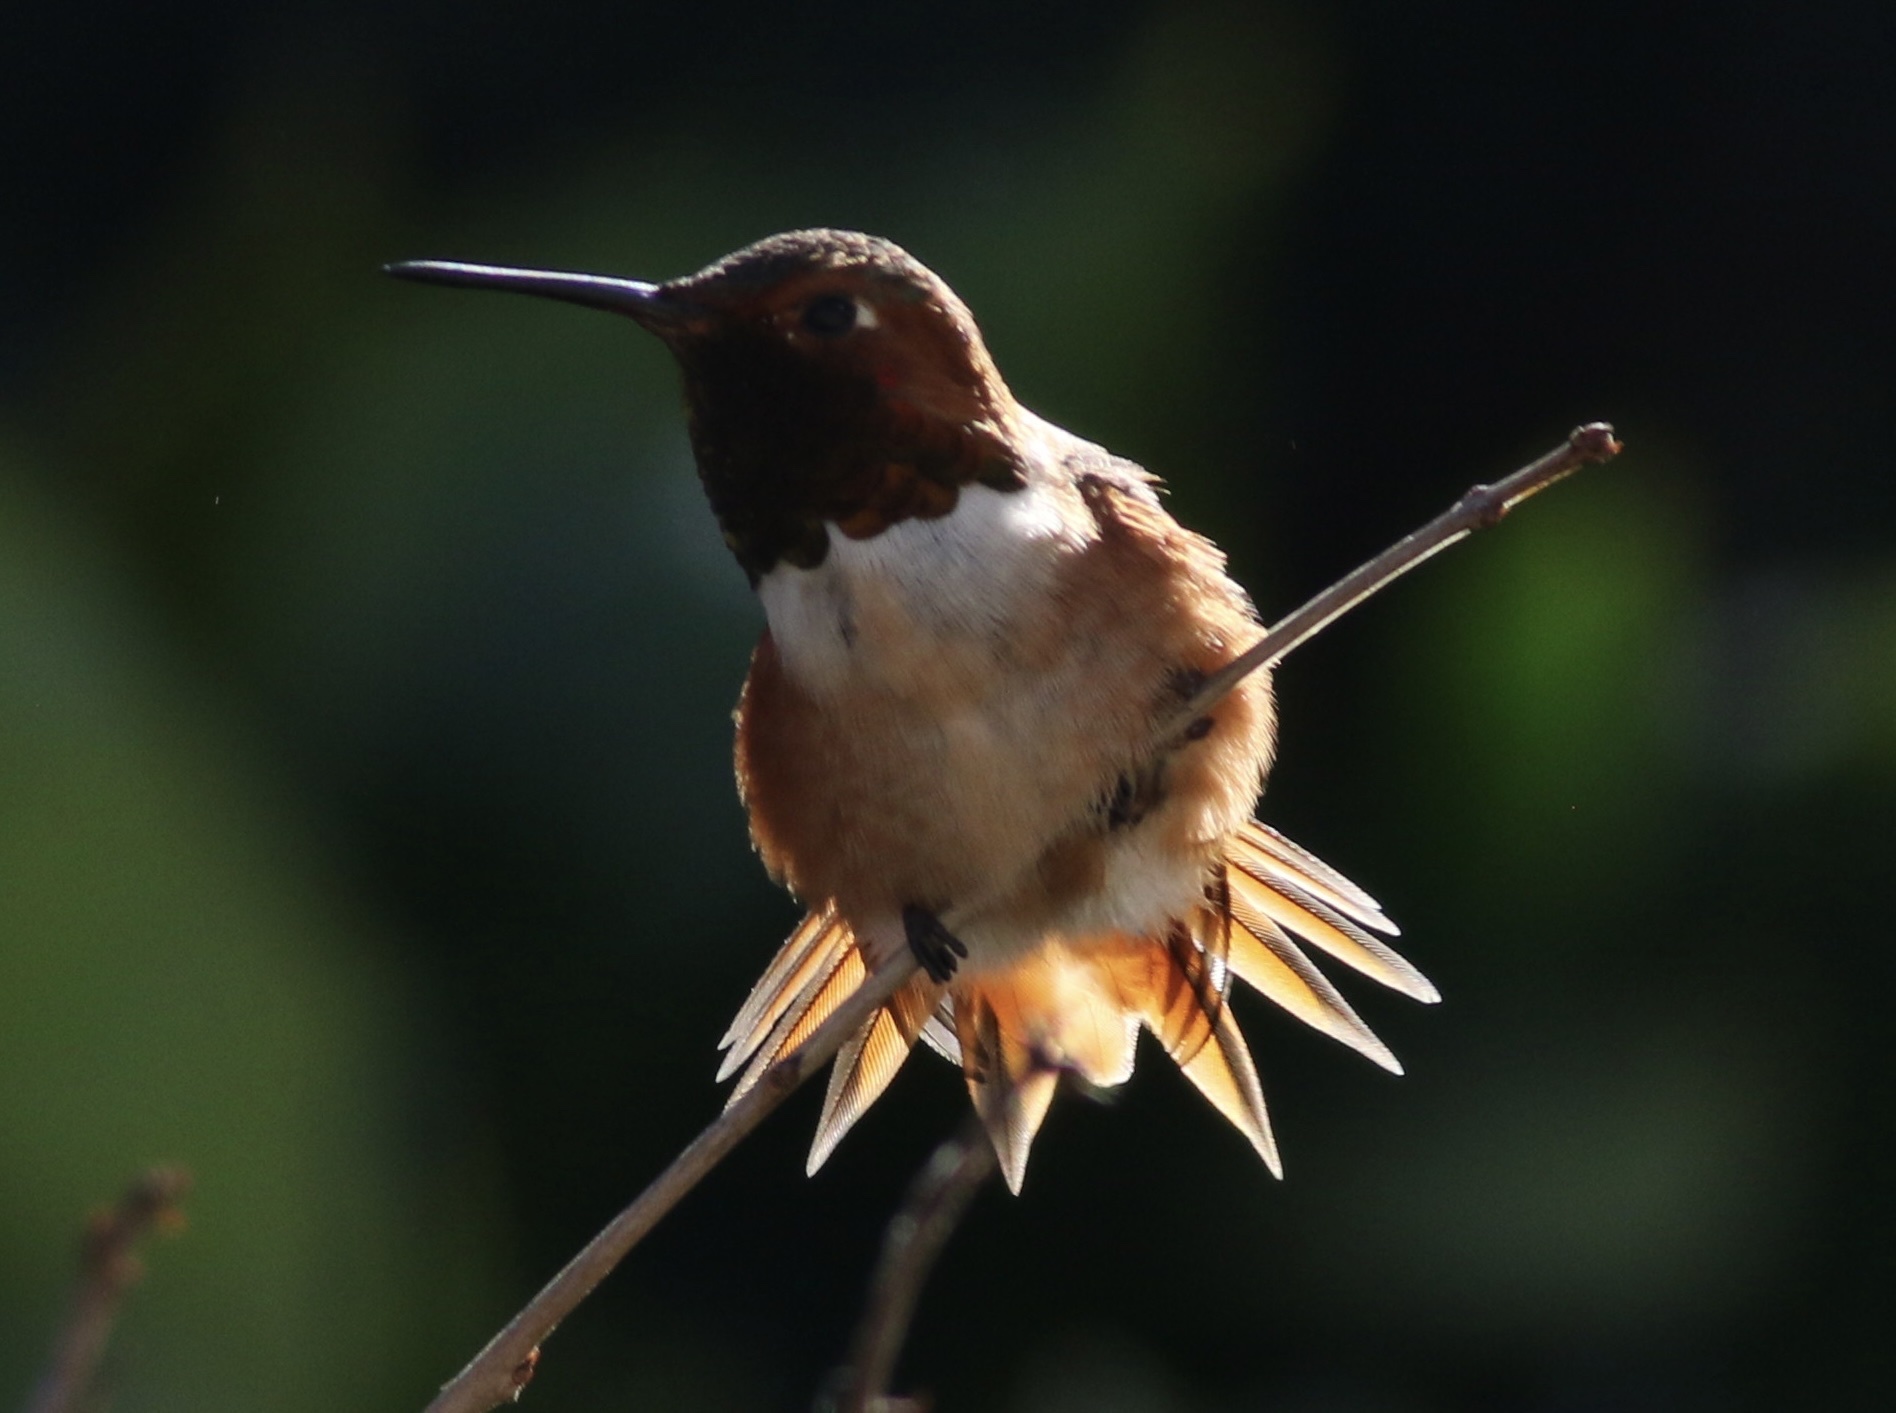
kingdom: Animalia
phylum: Chordata
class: Aves
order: Apodiformes
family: Trochilidae
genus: Selasphorus
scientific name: Selasphorus sasin
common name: Allen's hummingbird
